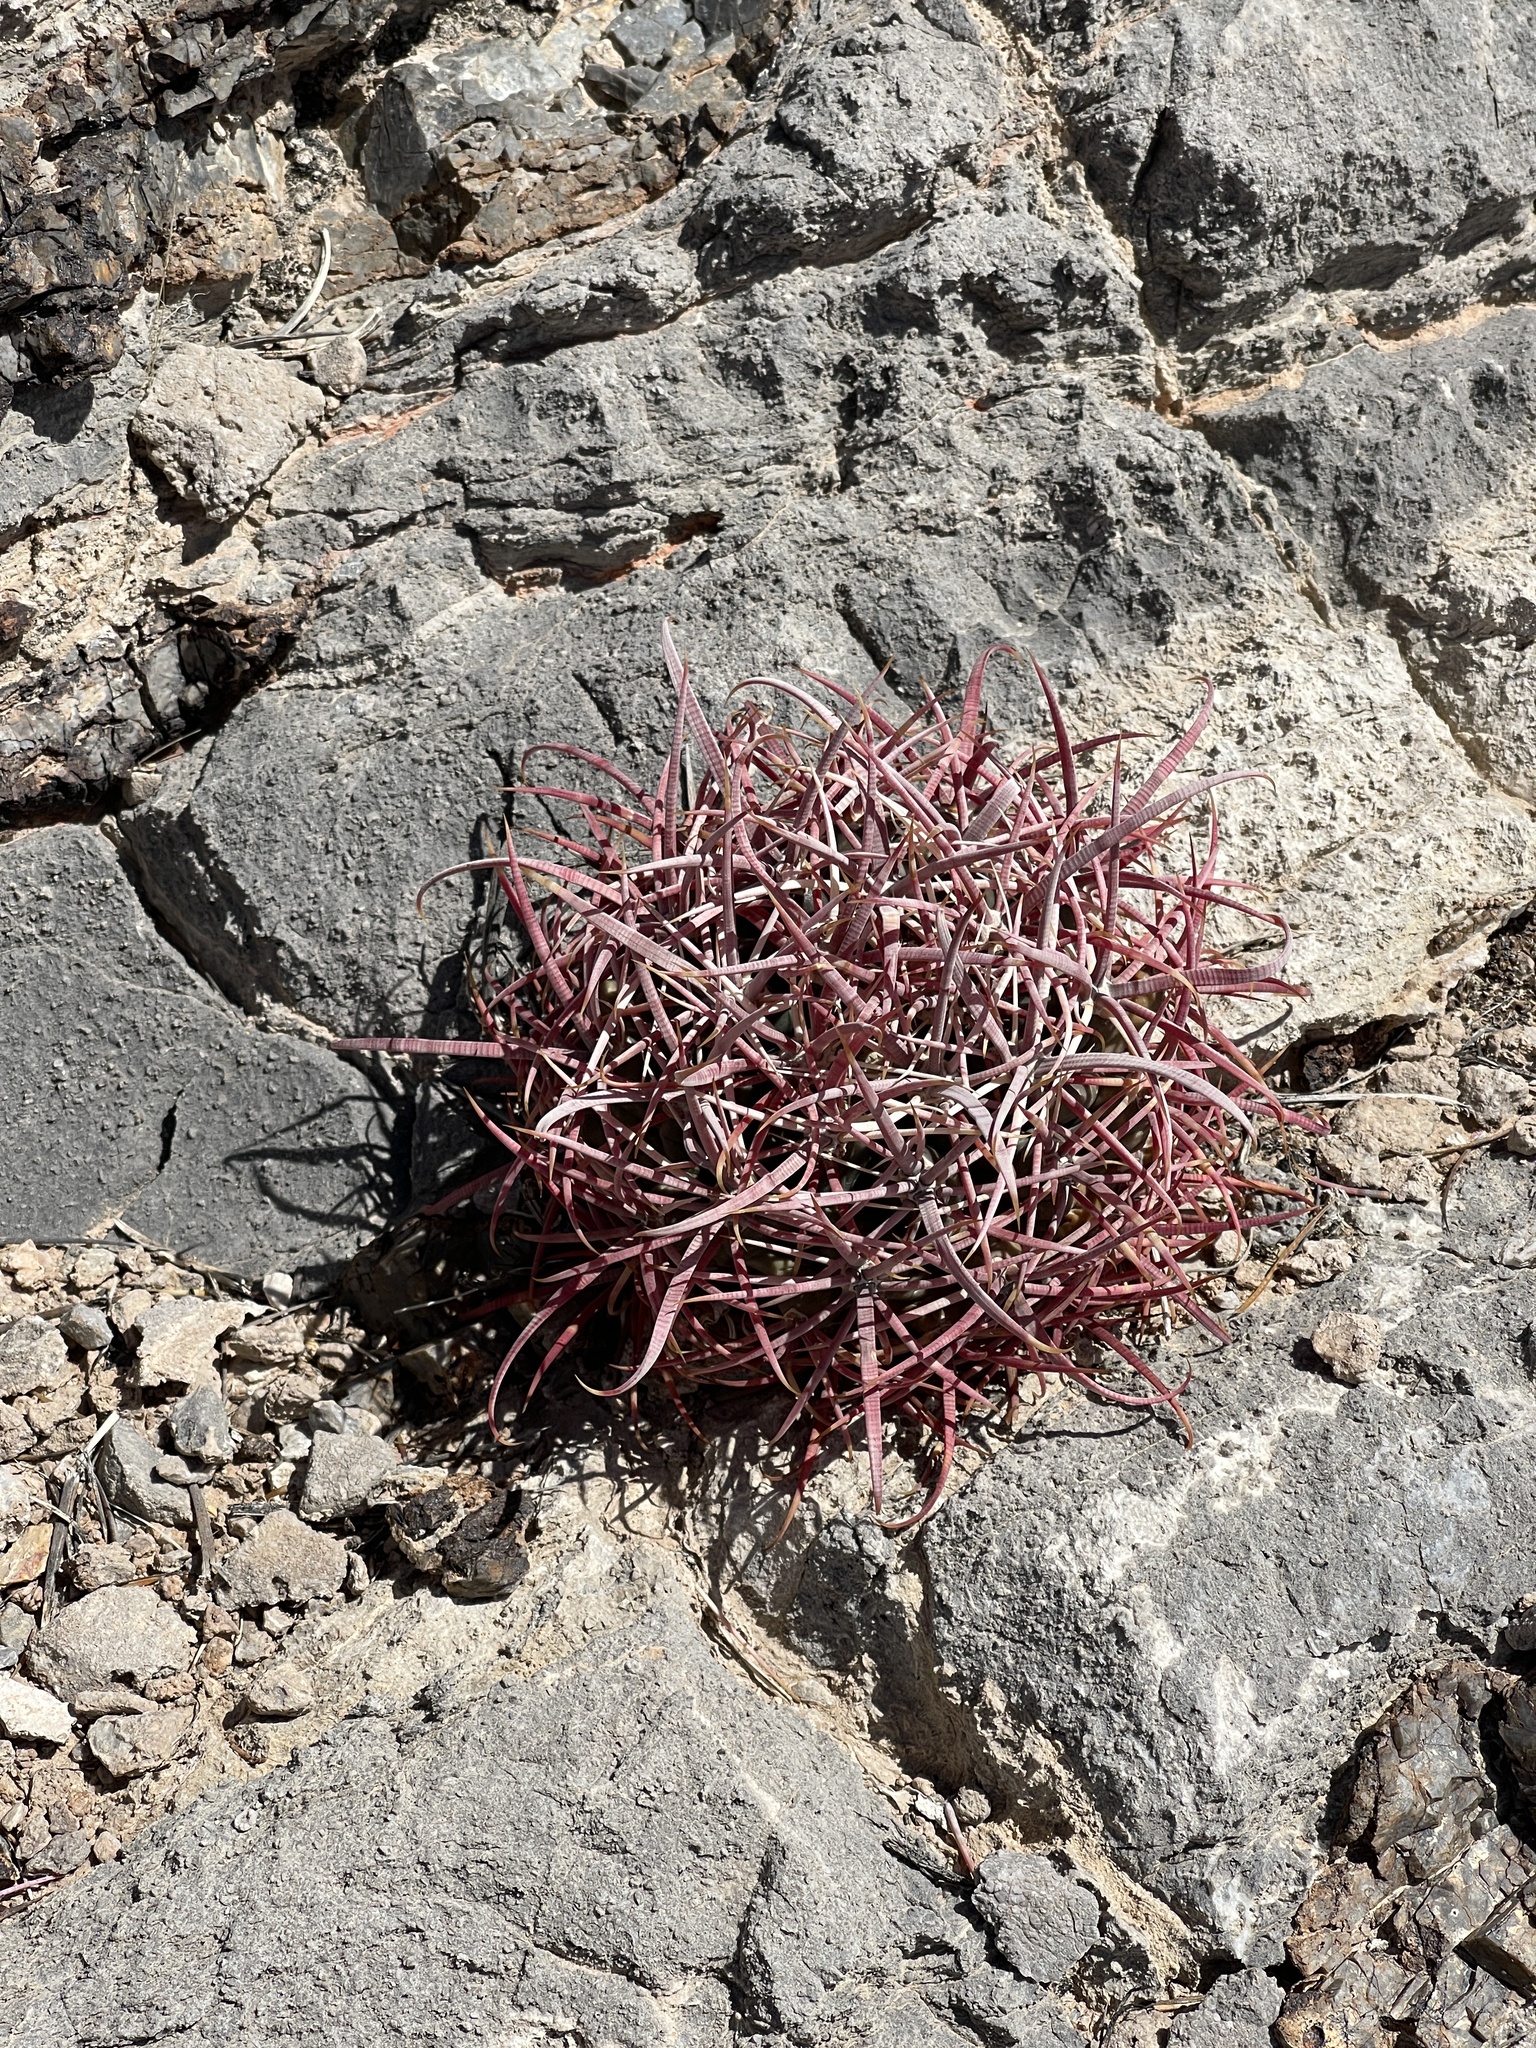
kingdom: Plantae
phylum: Tracheophyta
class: Magnoliopsida
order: Caryophyllales
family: Cactaceae
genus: Ferocactus
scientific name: Ferocactus cylindraceus
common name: California barrel cactus
